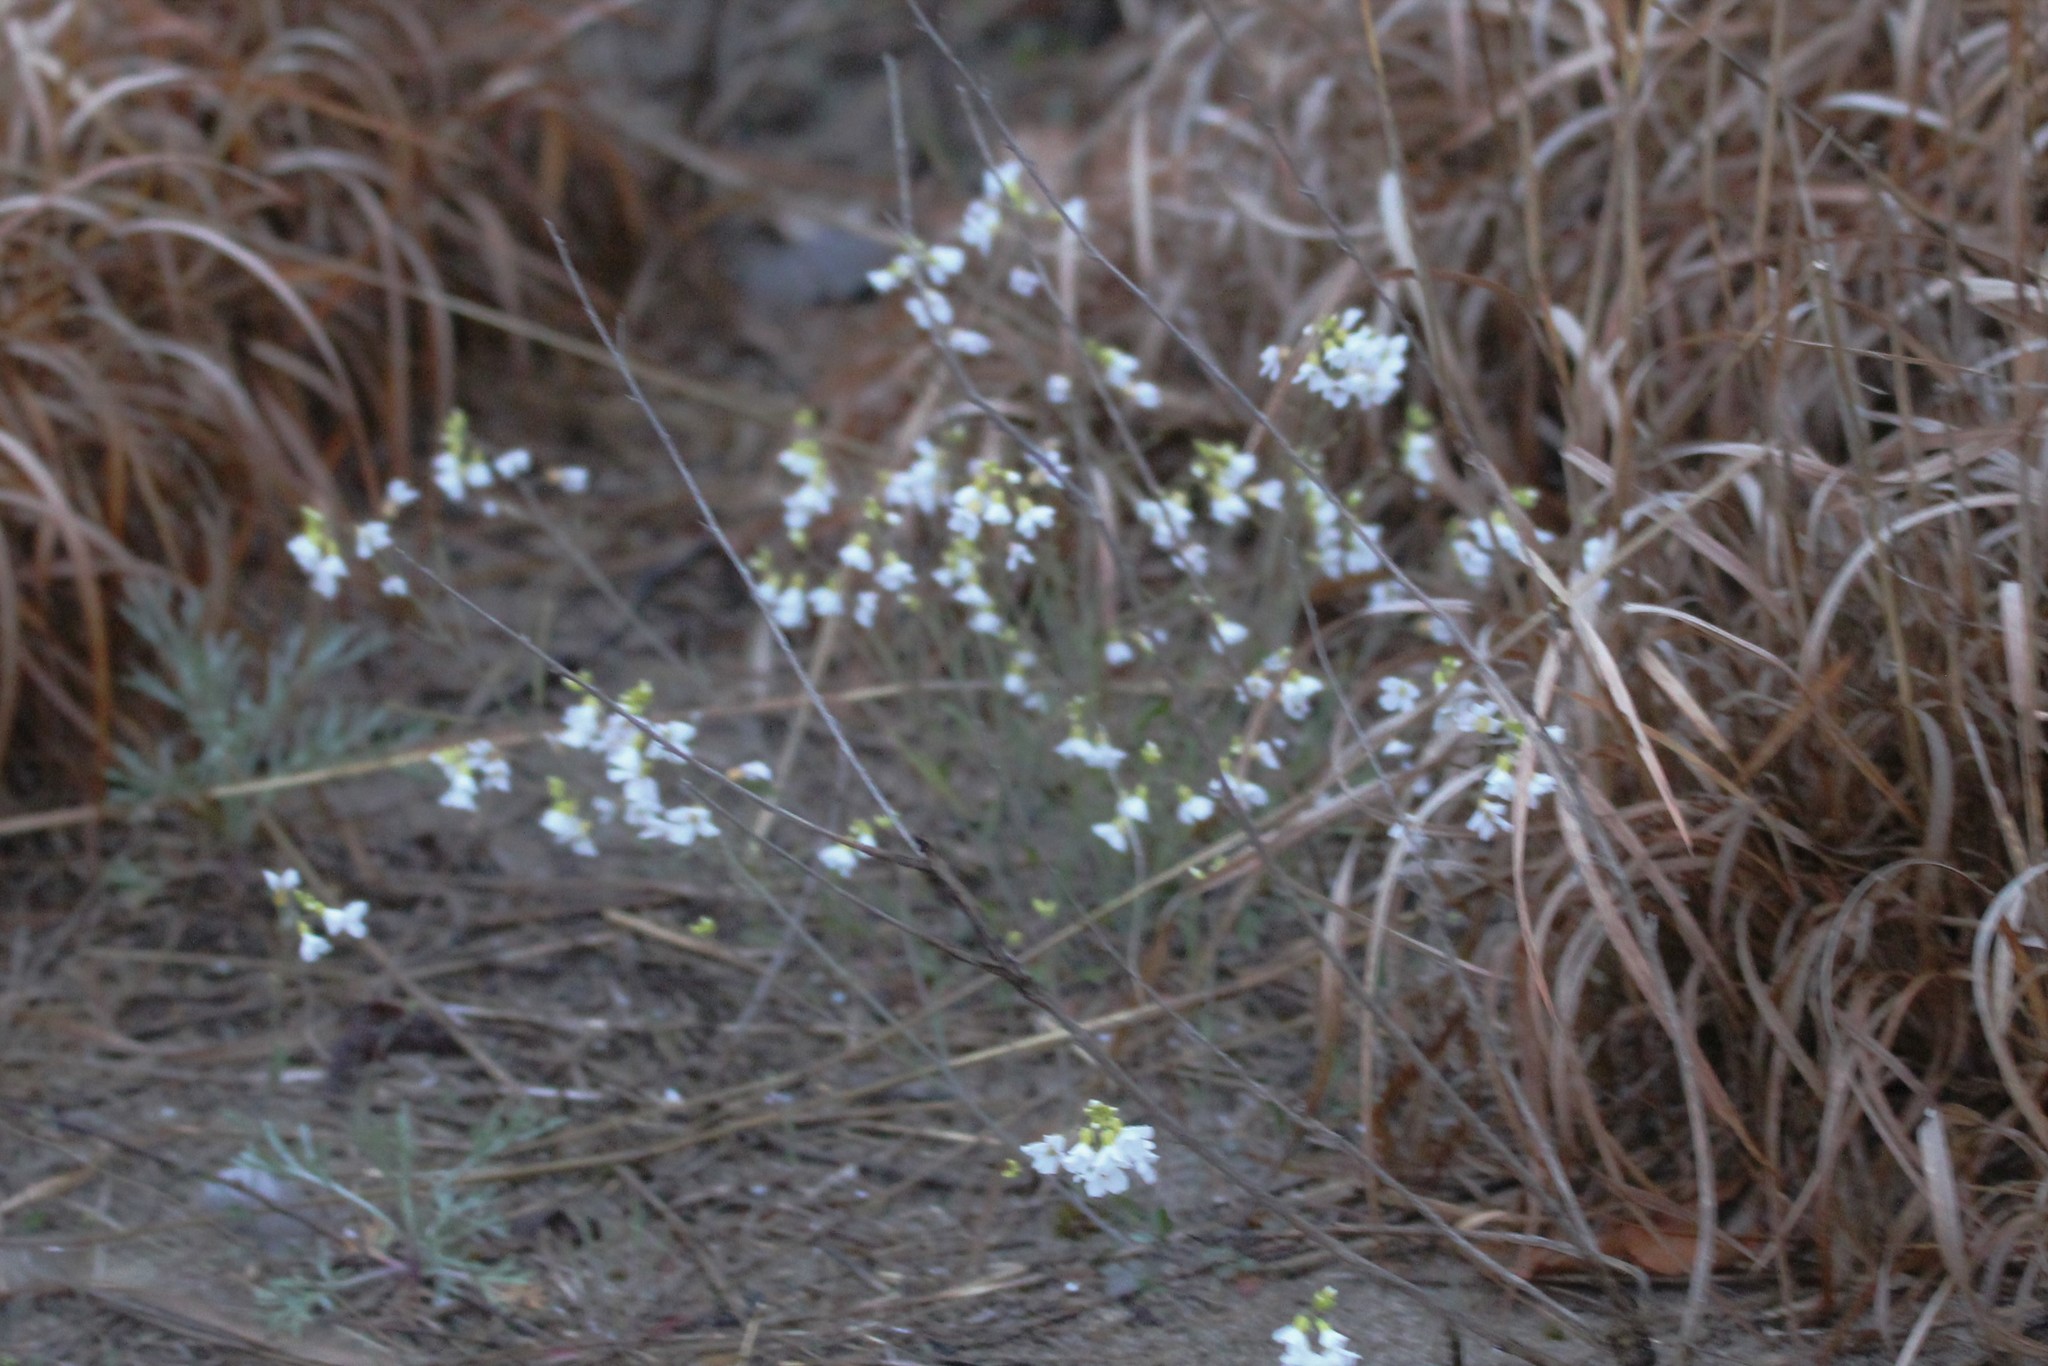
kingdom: Plantae
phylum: Tracheophyta
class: Magnoliopsida
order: Brassicales
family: Brassicaceae
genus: Arabidopsis
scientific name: Arabidopsis lyrata
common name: Lyrate rockcress
